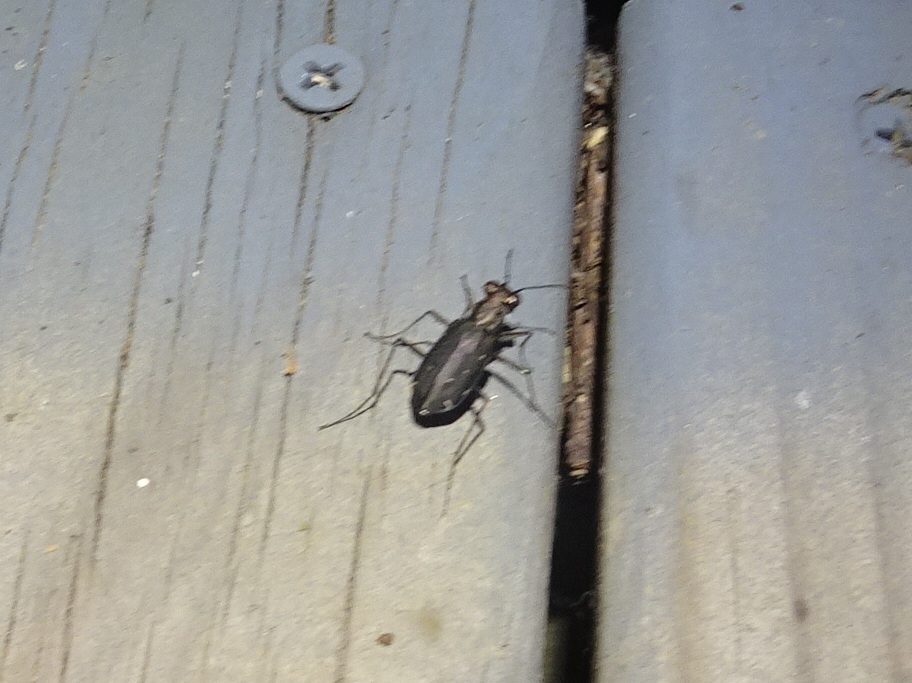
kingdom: Animalia
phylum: Arthropoda
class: Insecta
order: Coleoptera
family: Carabidae
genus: Cicindela
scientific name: Cicindela punctulata
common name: Punctured tiger beetle
